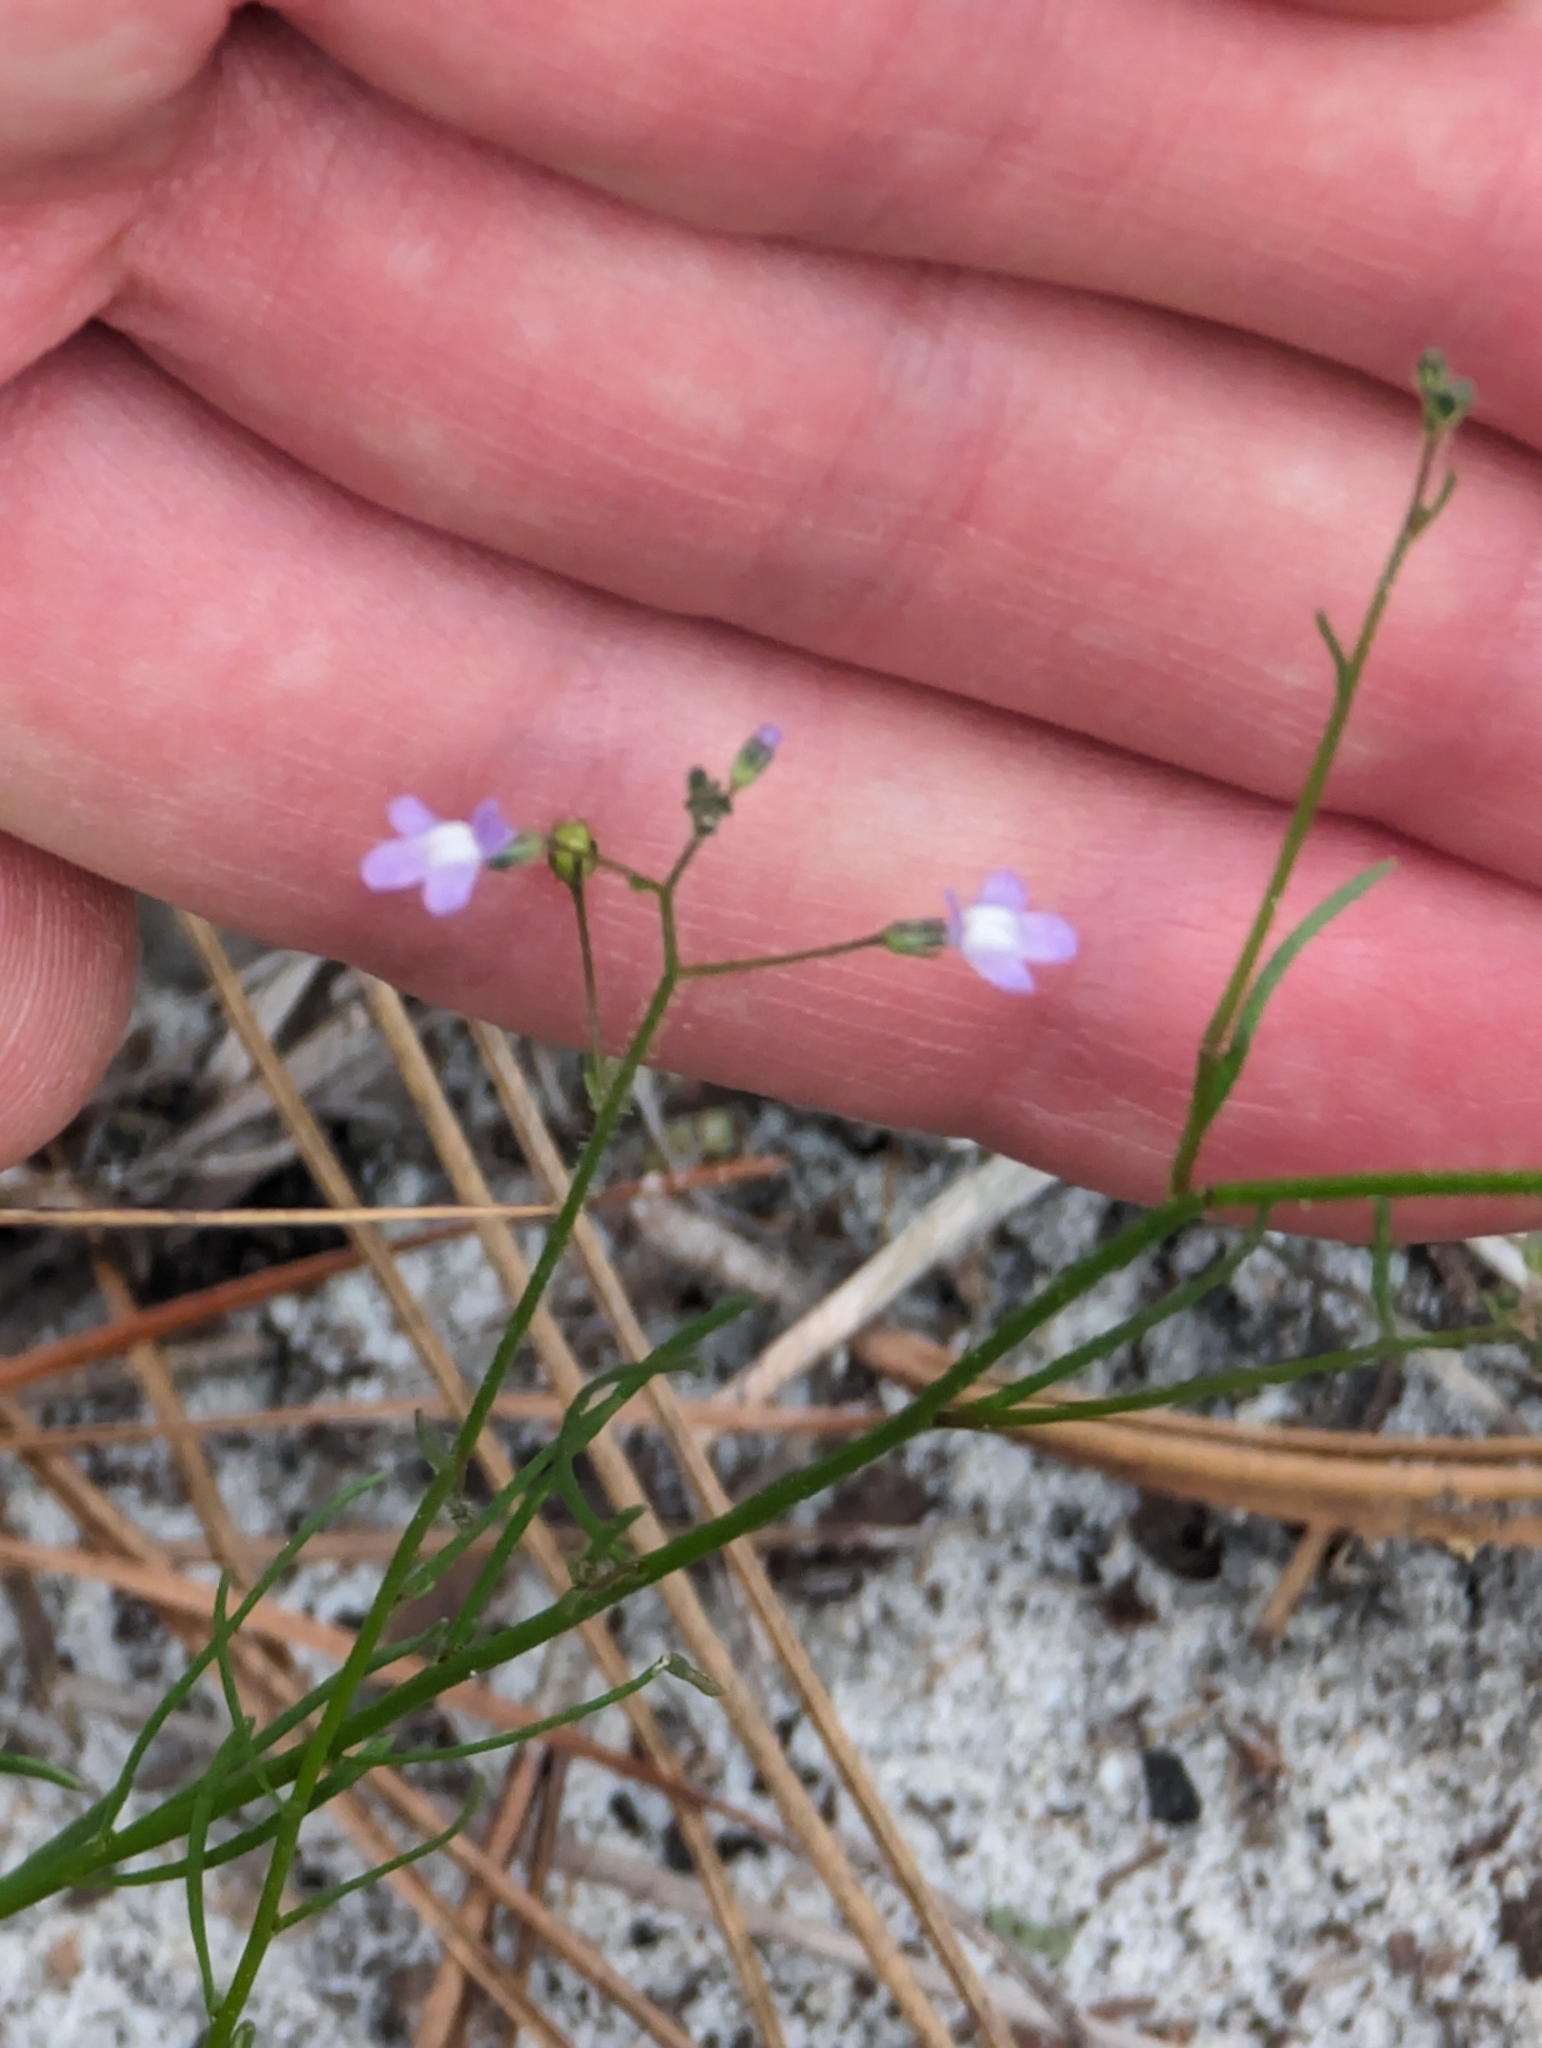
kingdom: Plantae
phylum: Tracheophyta
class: Magnoliopsida
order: Lamiales
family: Plantaginaceae
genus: Nuttallanthus
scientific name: Nuttallanthus floridanus
